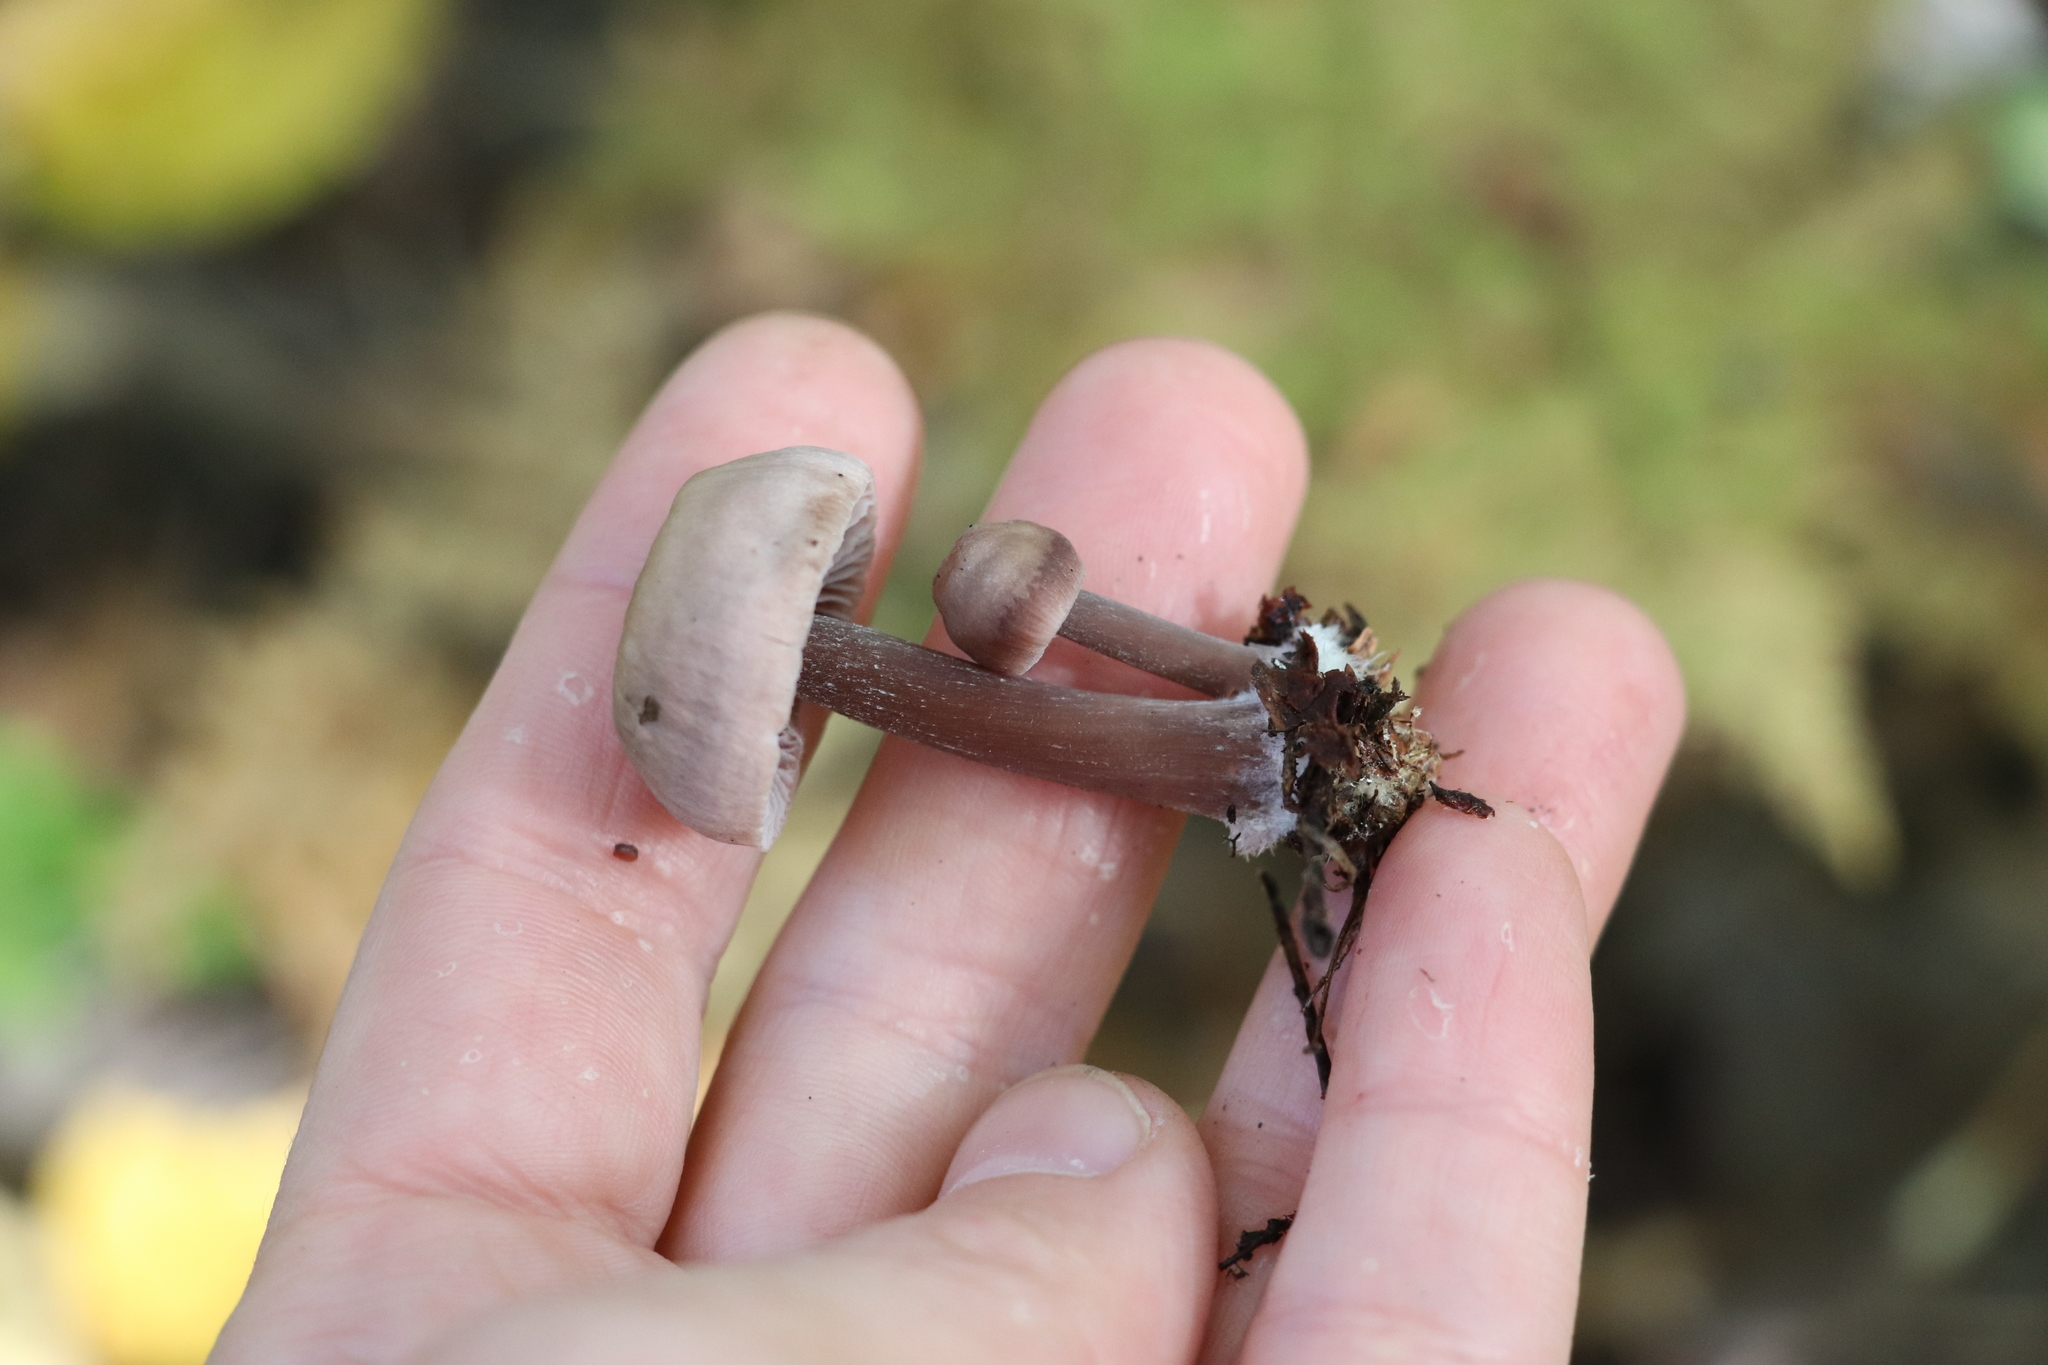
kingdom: Fungi
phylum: Basidiomycota
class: Agaricomycetes
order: Agaricales
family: Mycenaceae
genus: Mycena
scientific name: Mycena pura
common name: Lilac bonnet
